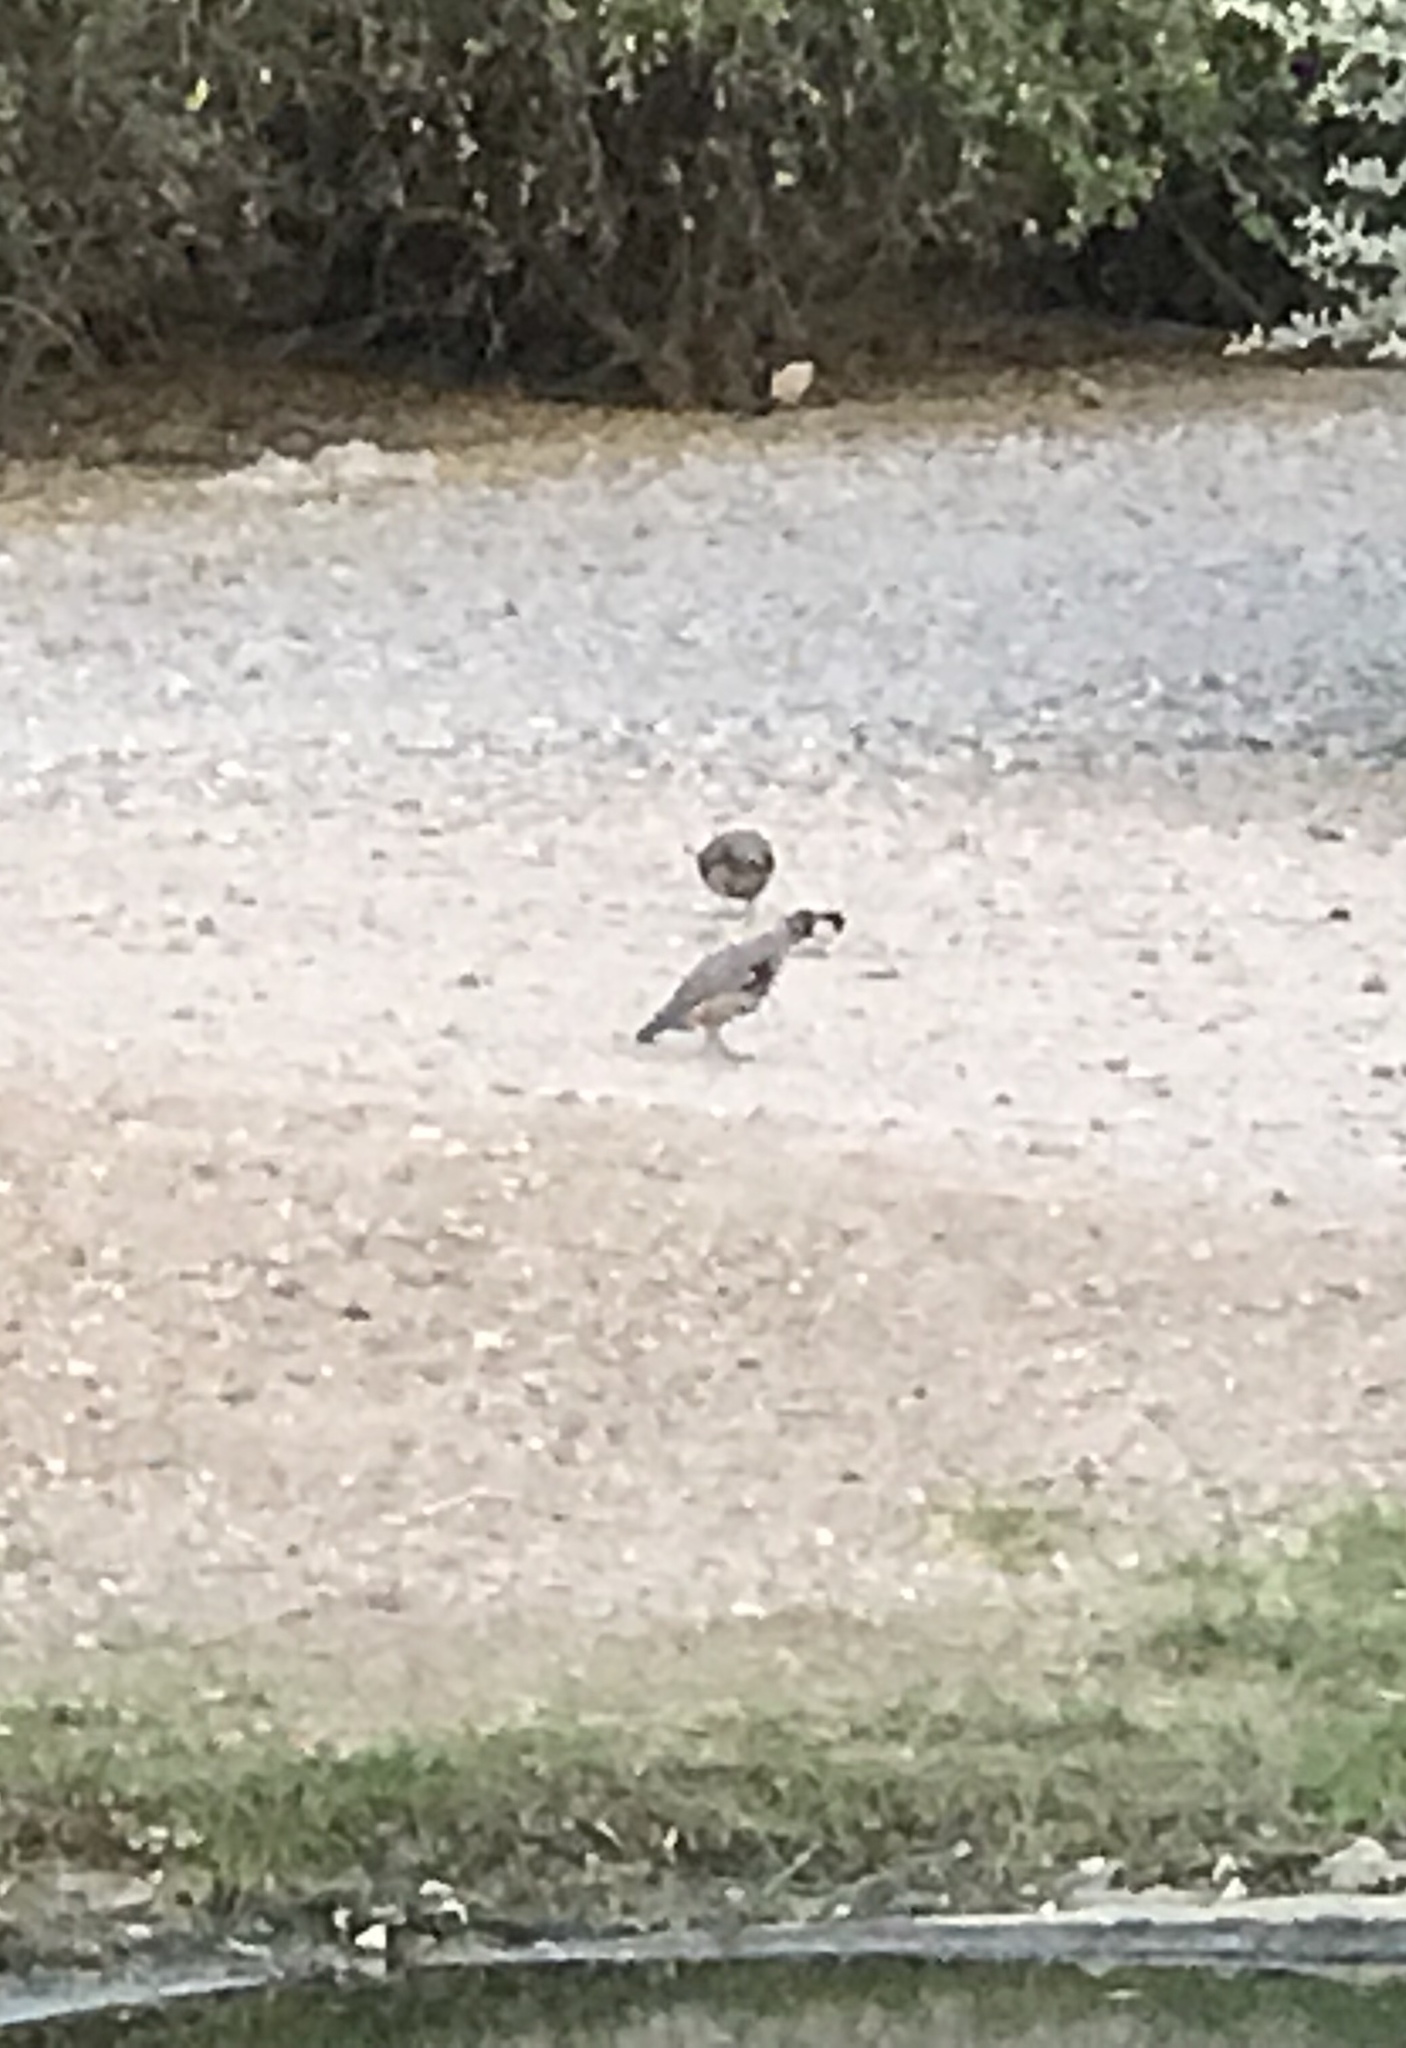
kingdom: Animalia
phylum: Chordata
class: Aves
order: Galliformes
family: Odontophoridae
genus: Callipepla
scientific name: Callipepla gambelii
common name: Gambel's quail
